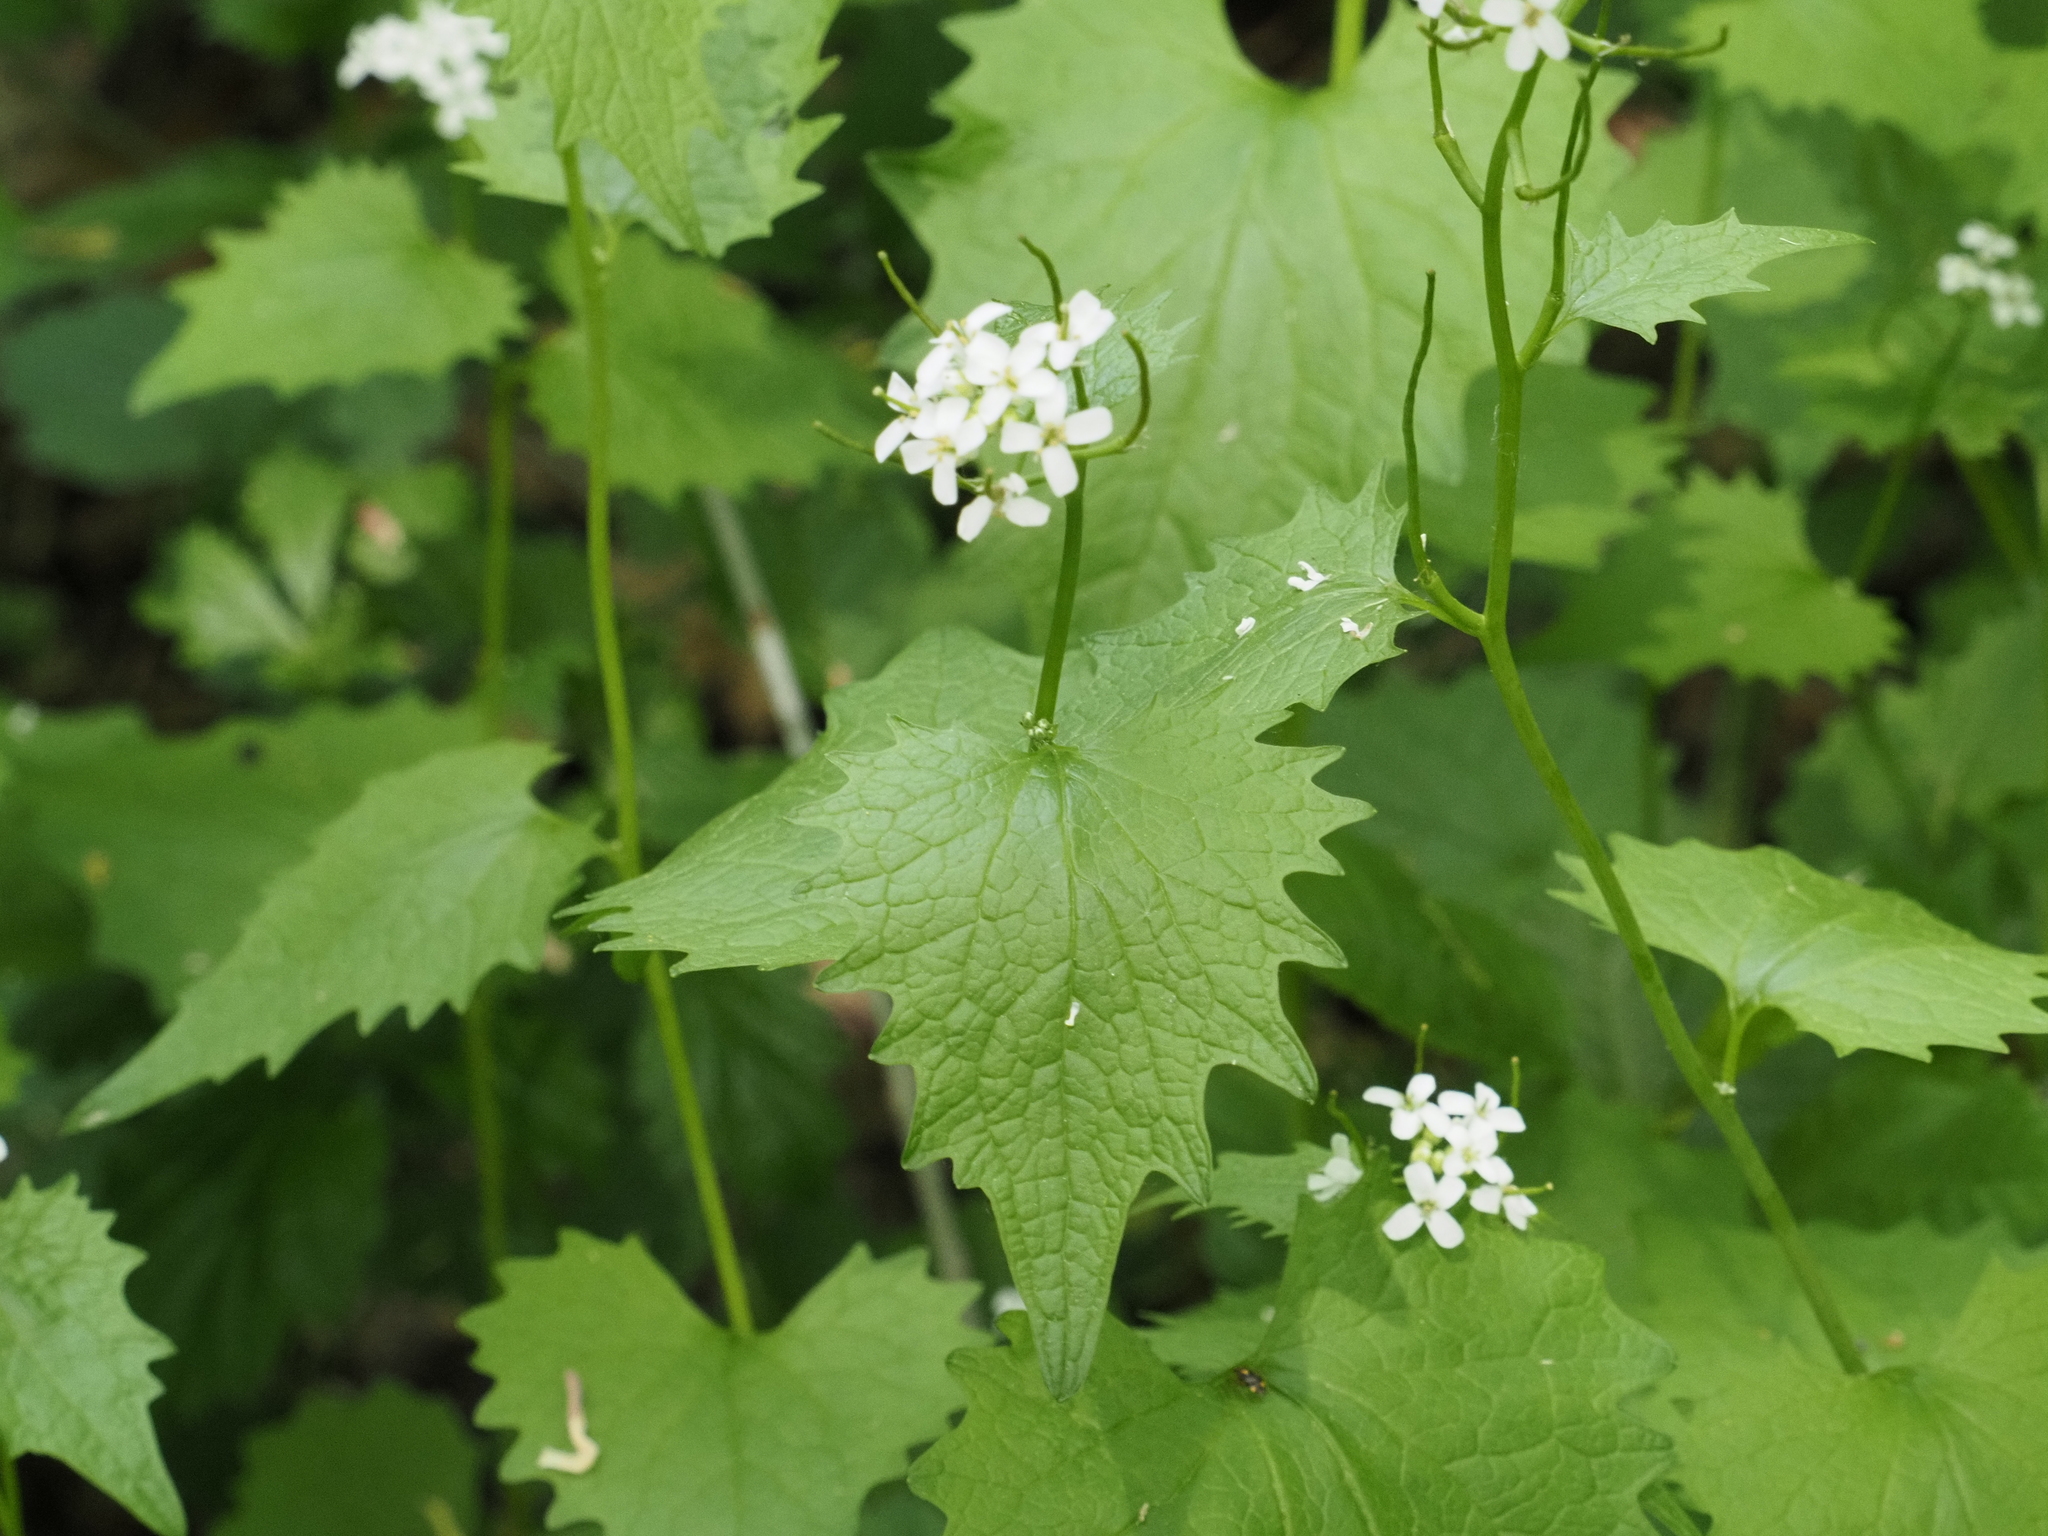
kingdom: Plantae
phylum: Tracheophyta
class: Magnoliopsida
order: Brassicales
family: Brassicaceae
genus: Alliaria
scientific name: Alliaria petiolata
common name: Garlic mustard
